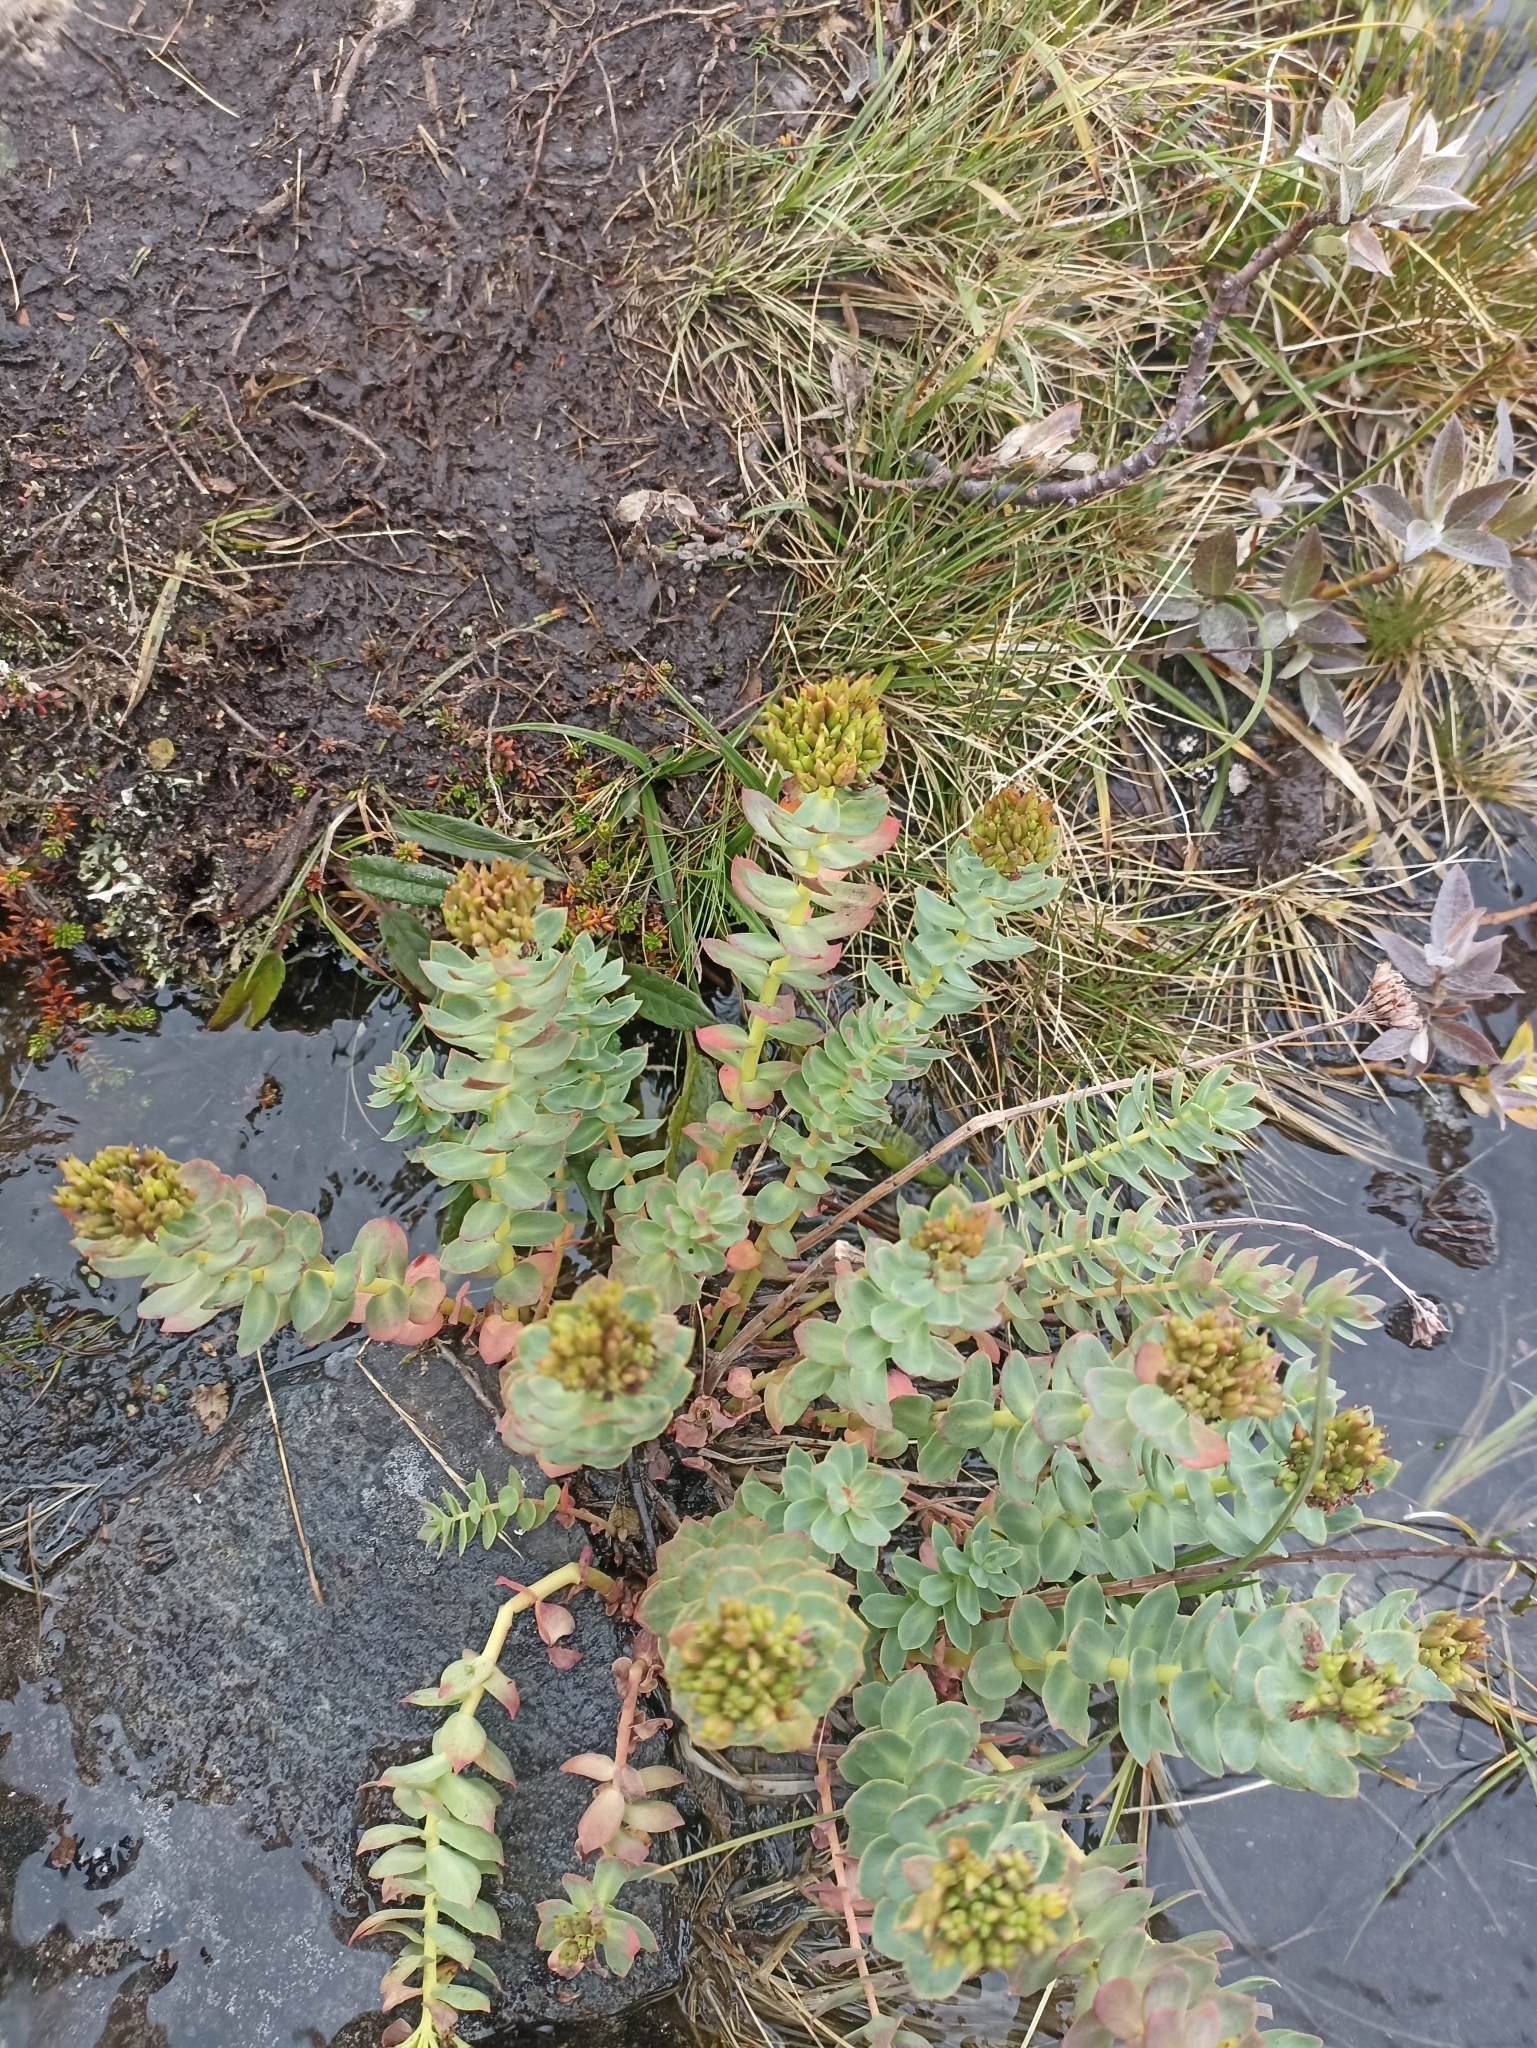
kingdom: Plantae
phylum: Tracheophyta
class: Magnoliopsida
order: Saxifragales
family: Crassulaceae
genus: Rhodiola
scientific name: Rhodiola rosea
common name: Roseroot
